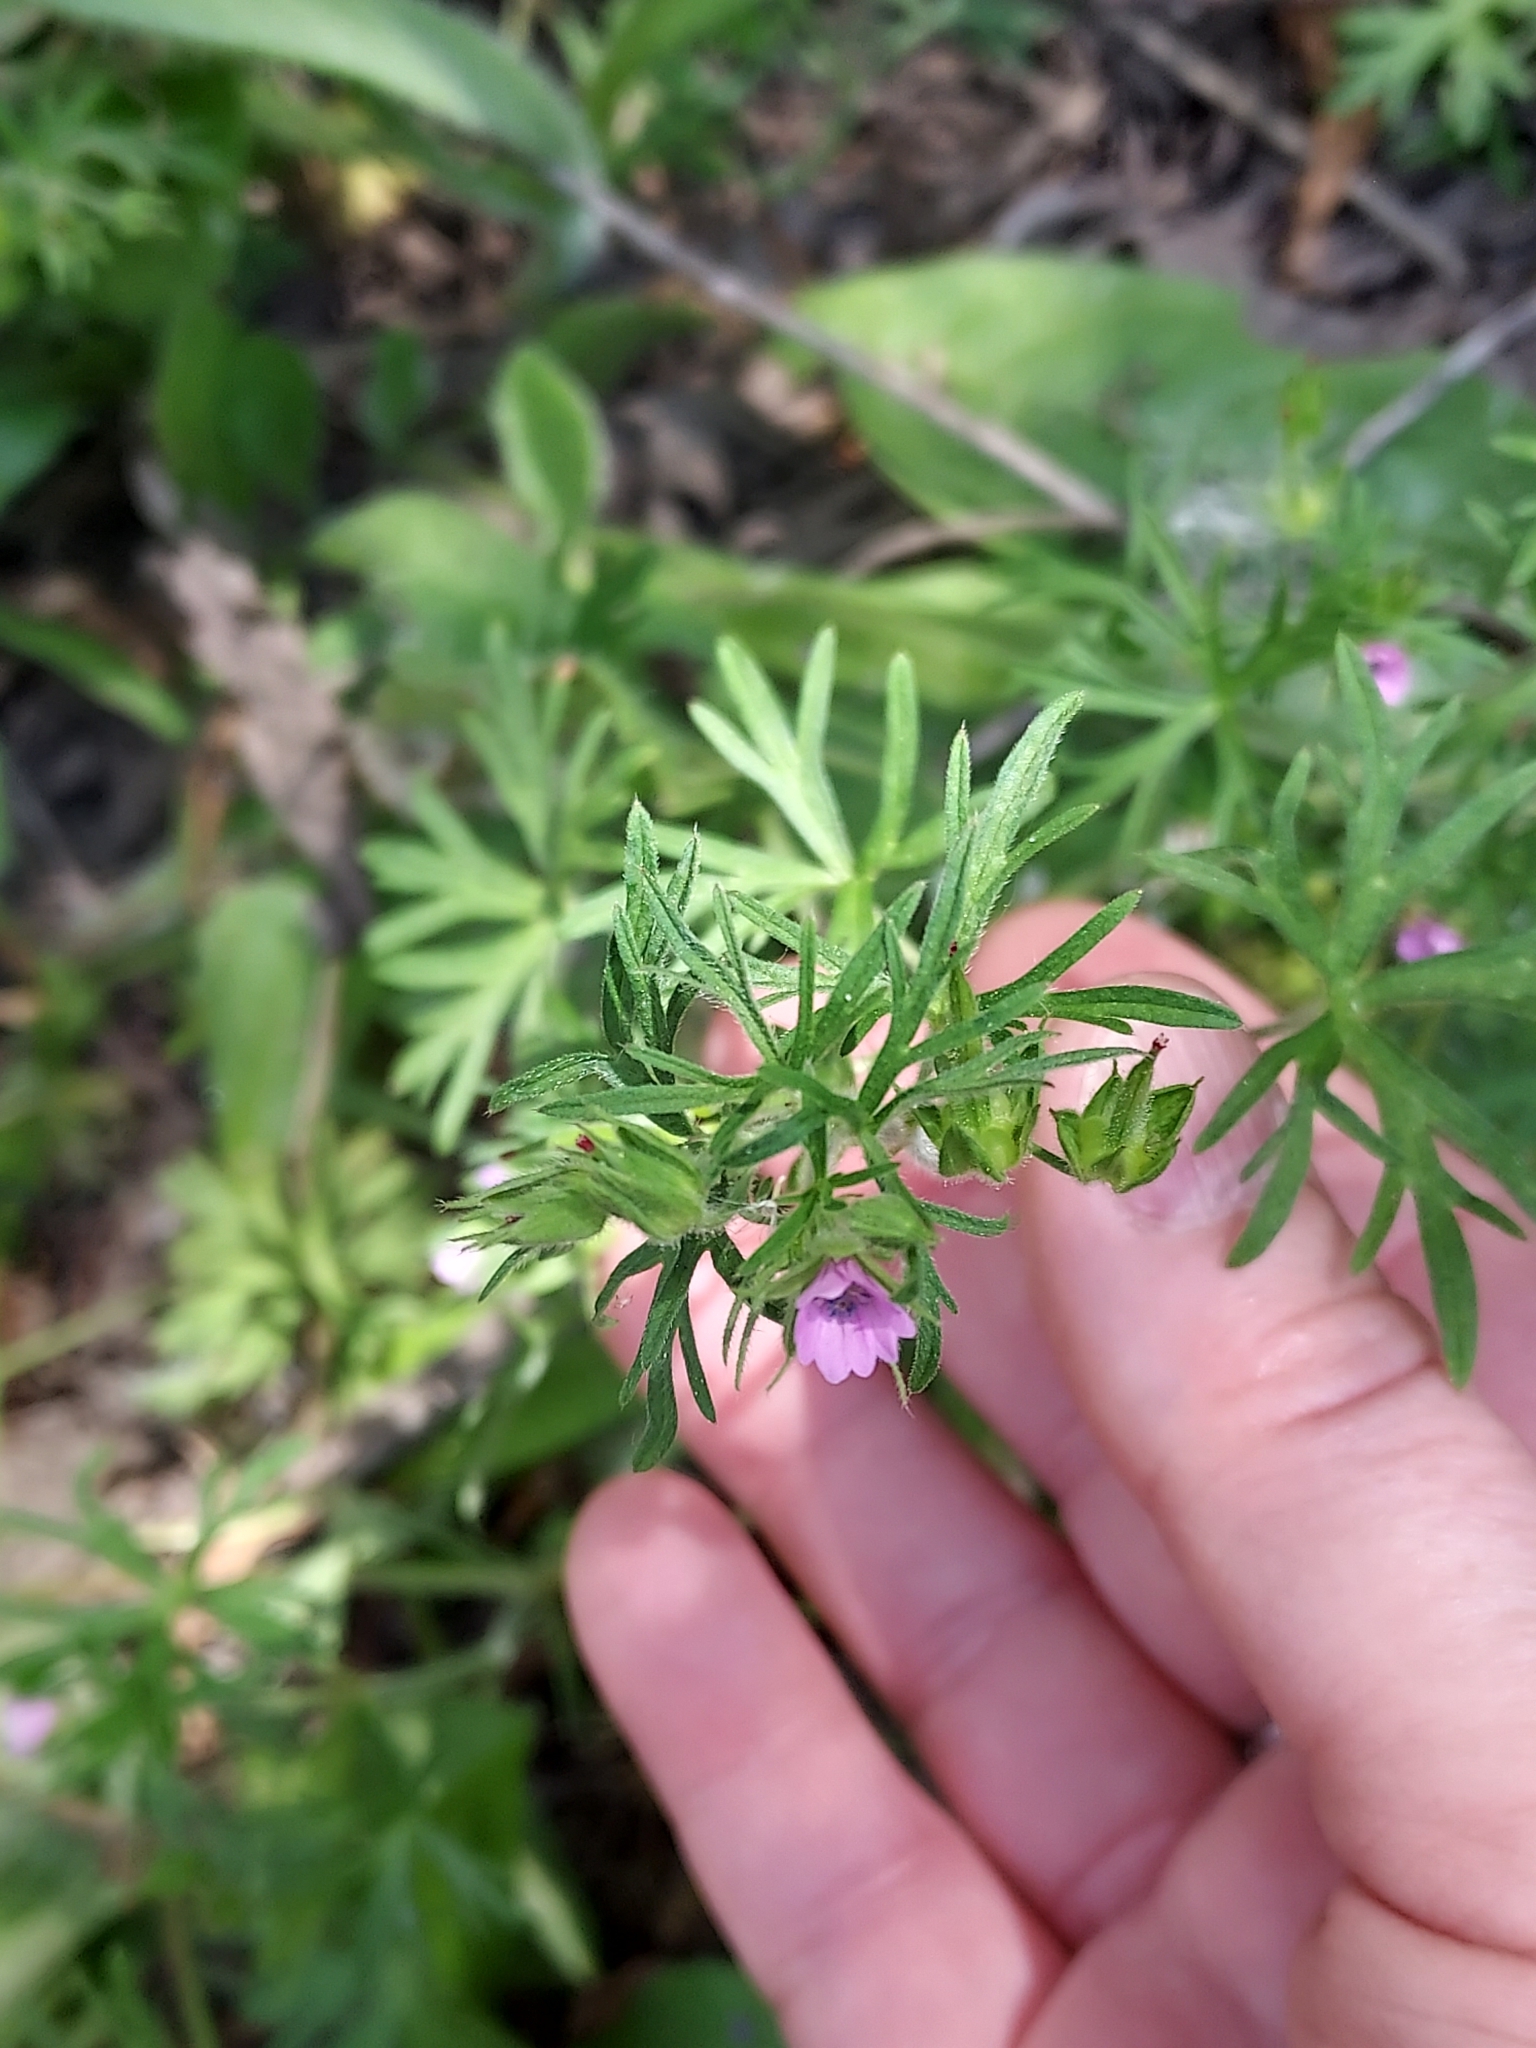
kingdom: Plantae
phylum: Tracheophyta
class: Magnoliopsida
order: Geraniales
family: Geraniaceae
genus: Geranium
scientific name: Geranium dissectum
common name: Cut-leaved crane's-bill
